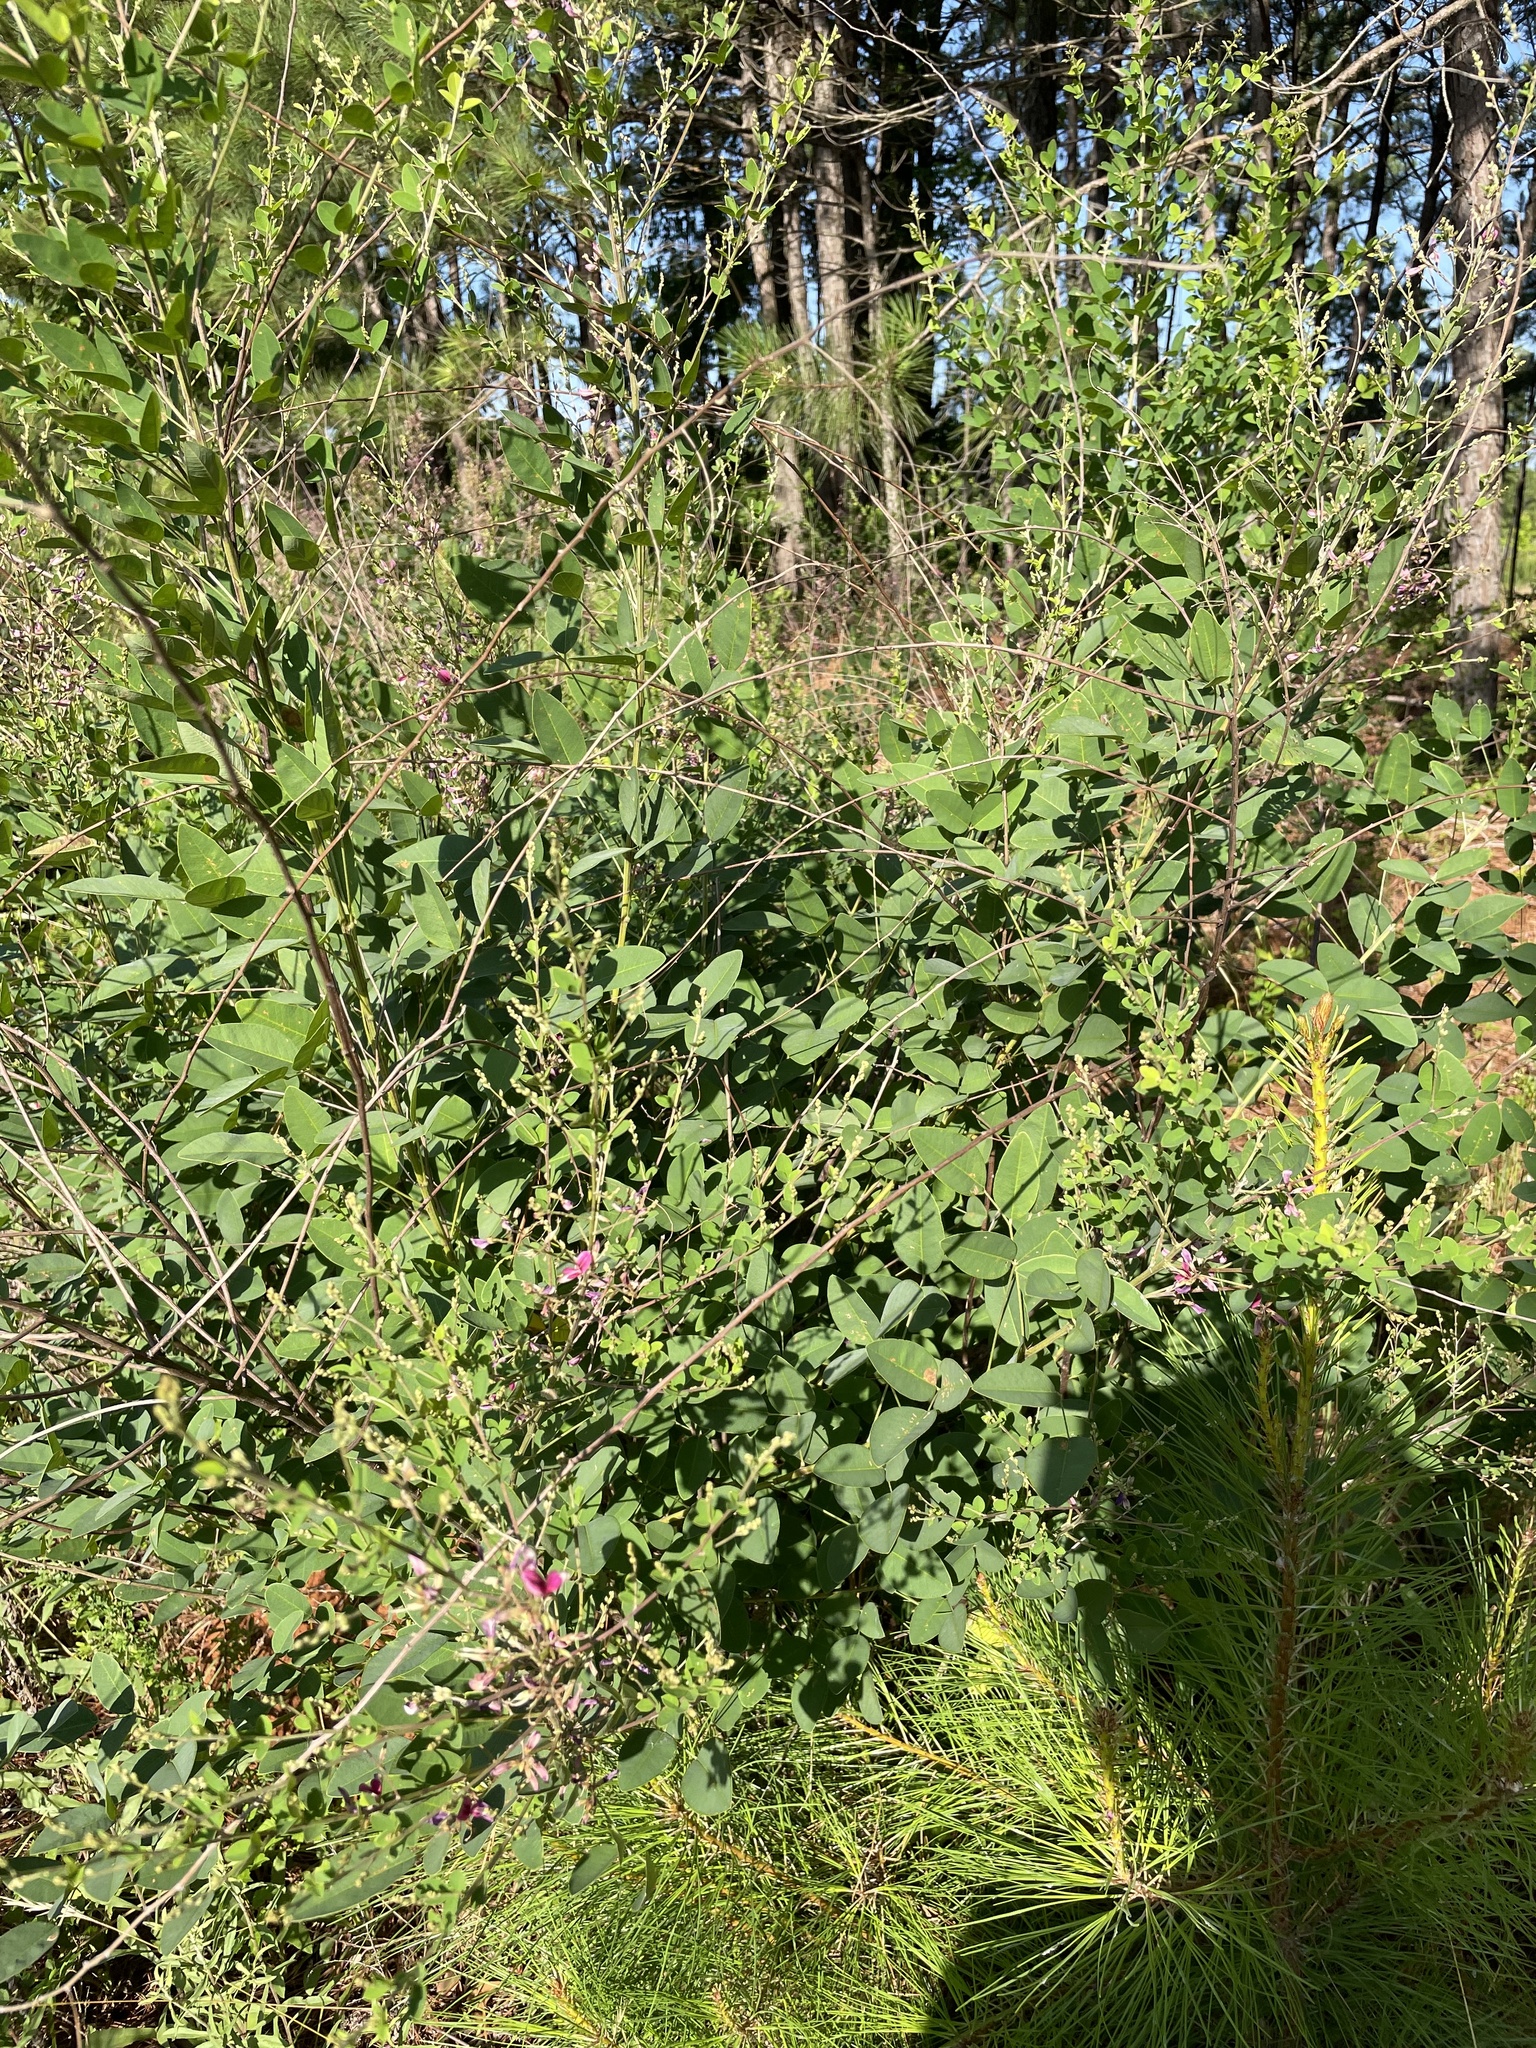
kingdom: Plantae
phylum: Tracheophyta
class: Magnoliopsida
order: Fabales
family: Fabaceae
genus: Lespedeza
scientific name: Lespedeza bicolor
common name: Shrub lespedeza
